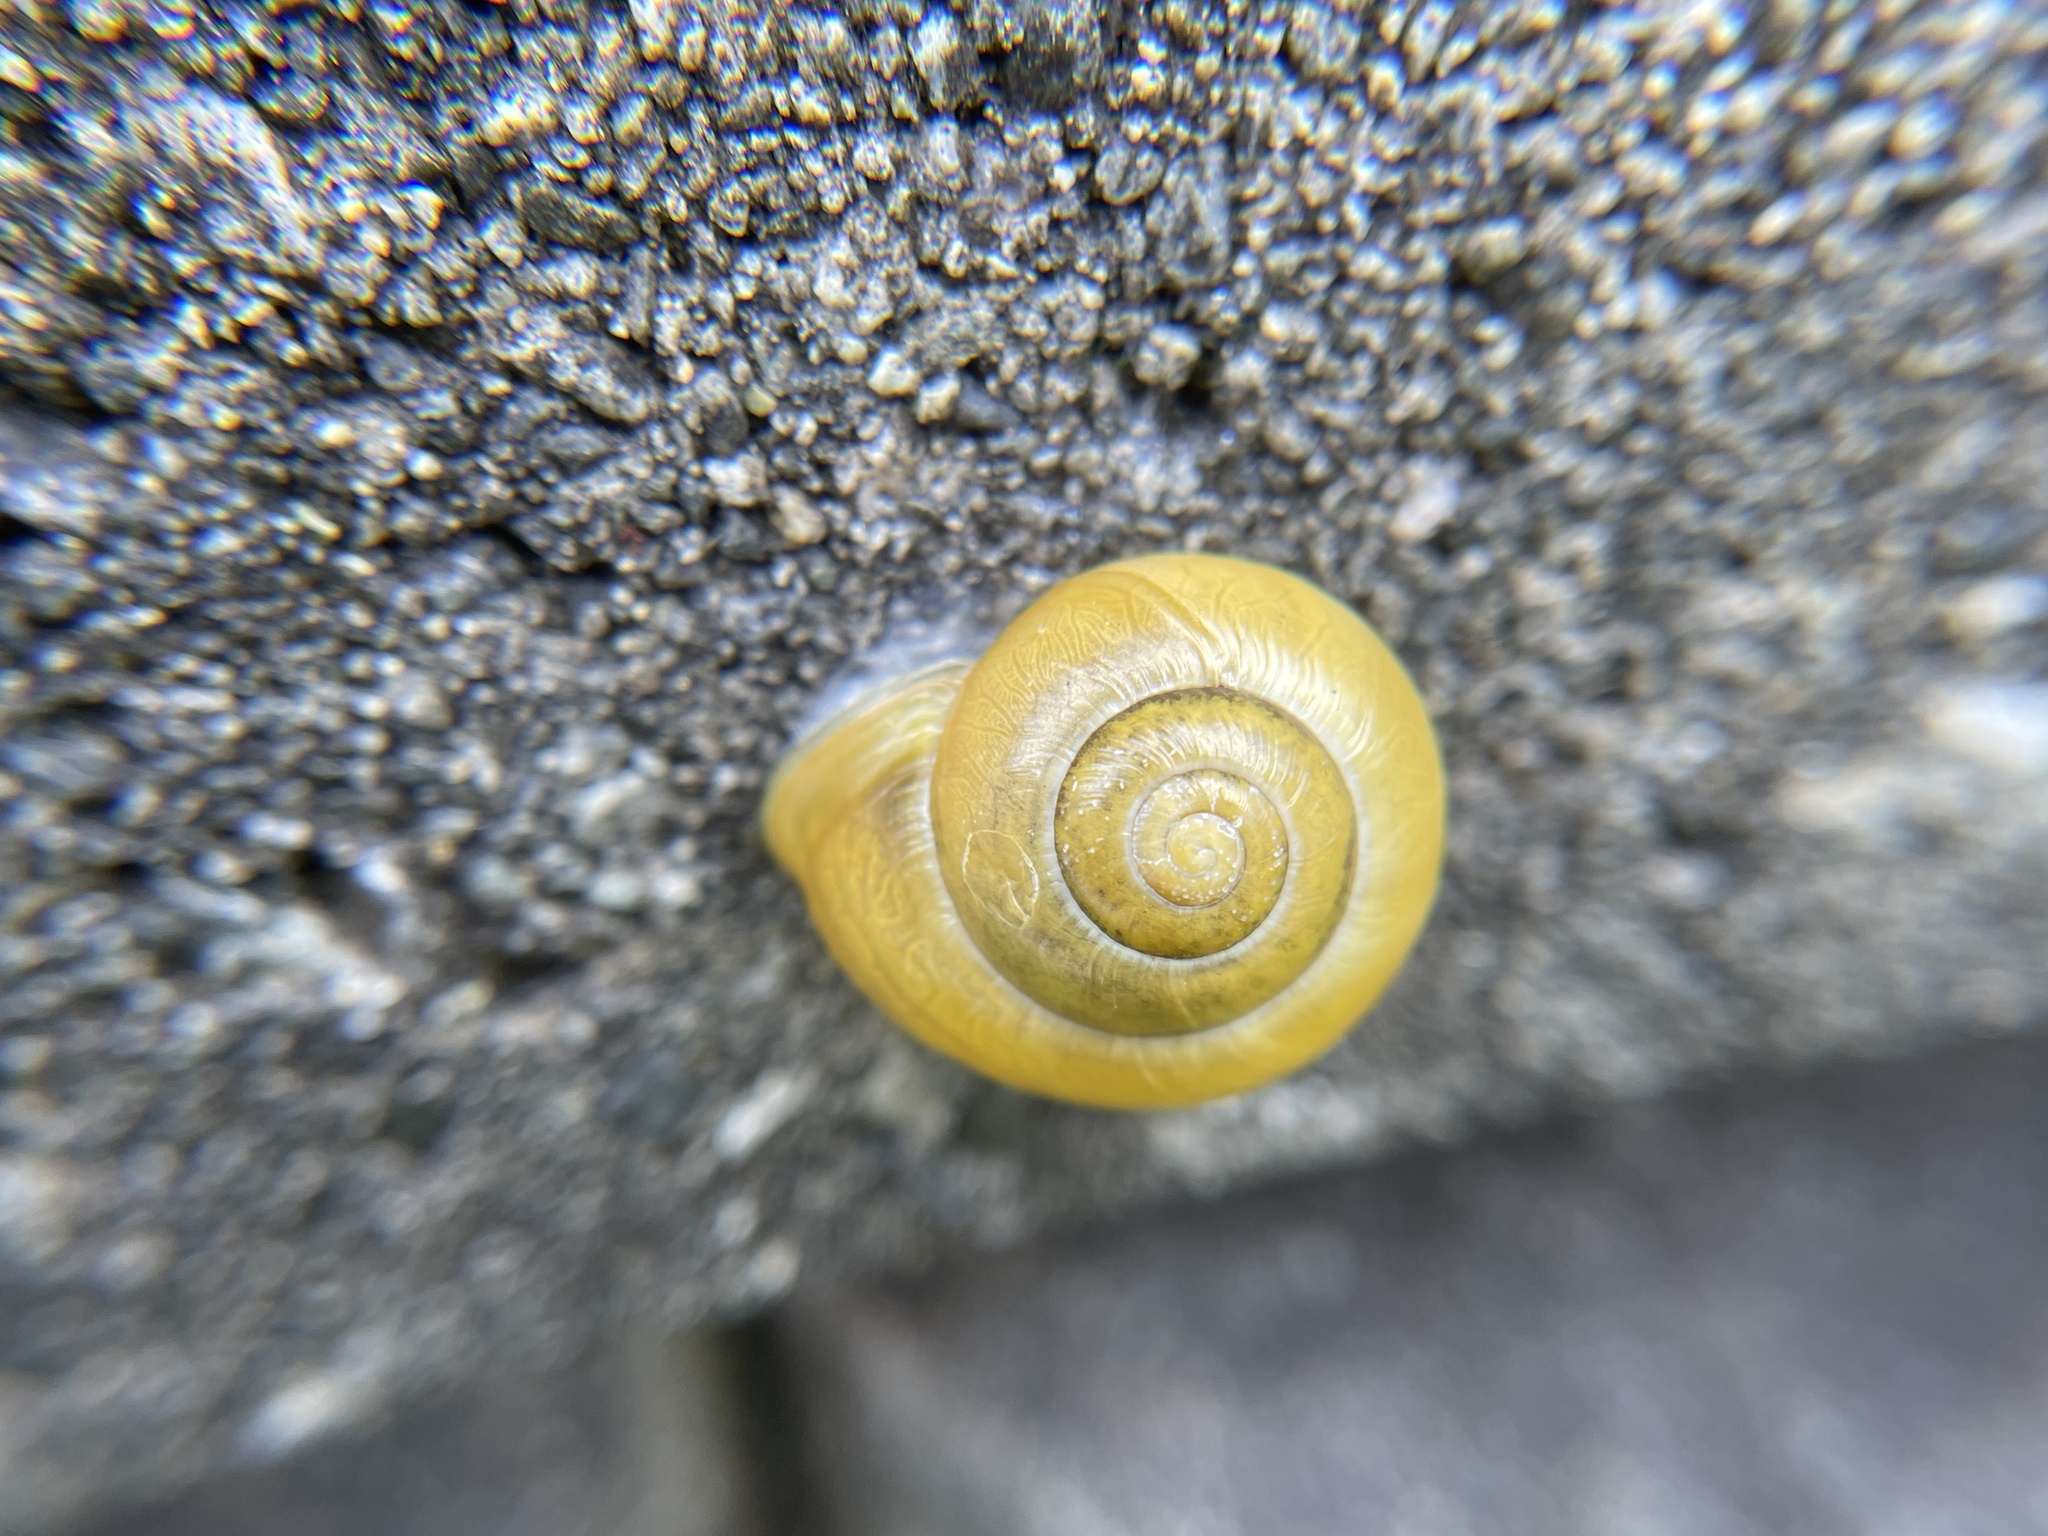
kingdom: Animalia
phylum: Mollusca
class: Gastropoda
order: Stylommatophora
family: Helicidae
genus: Cepaea
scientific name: Cepaea hortensis
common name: White-lip gardensnail
